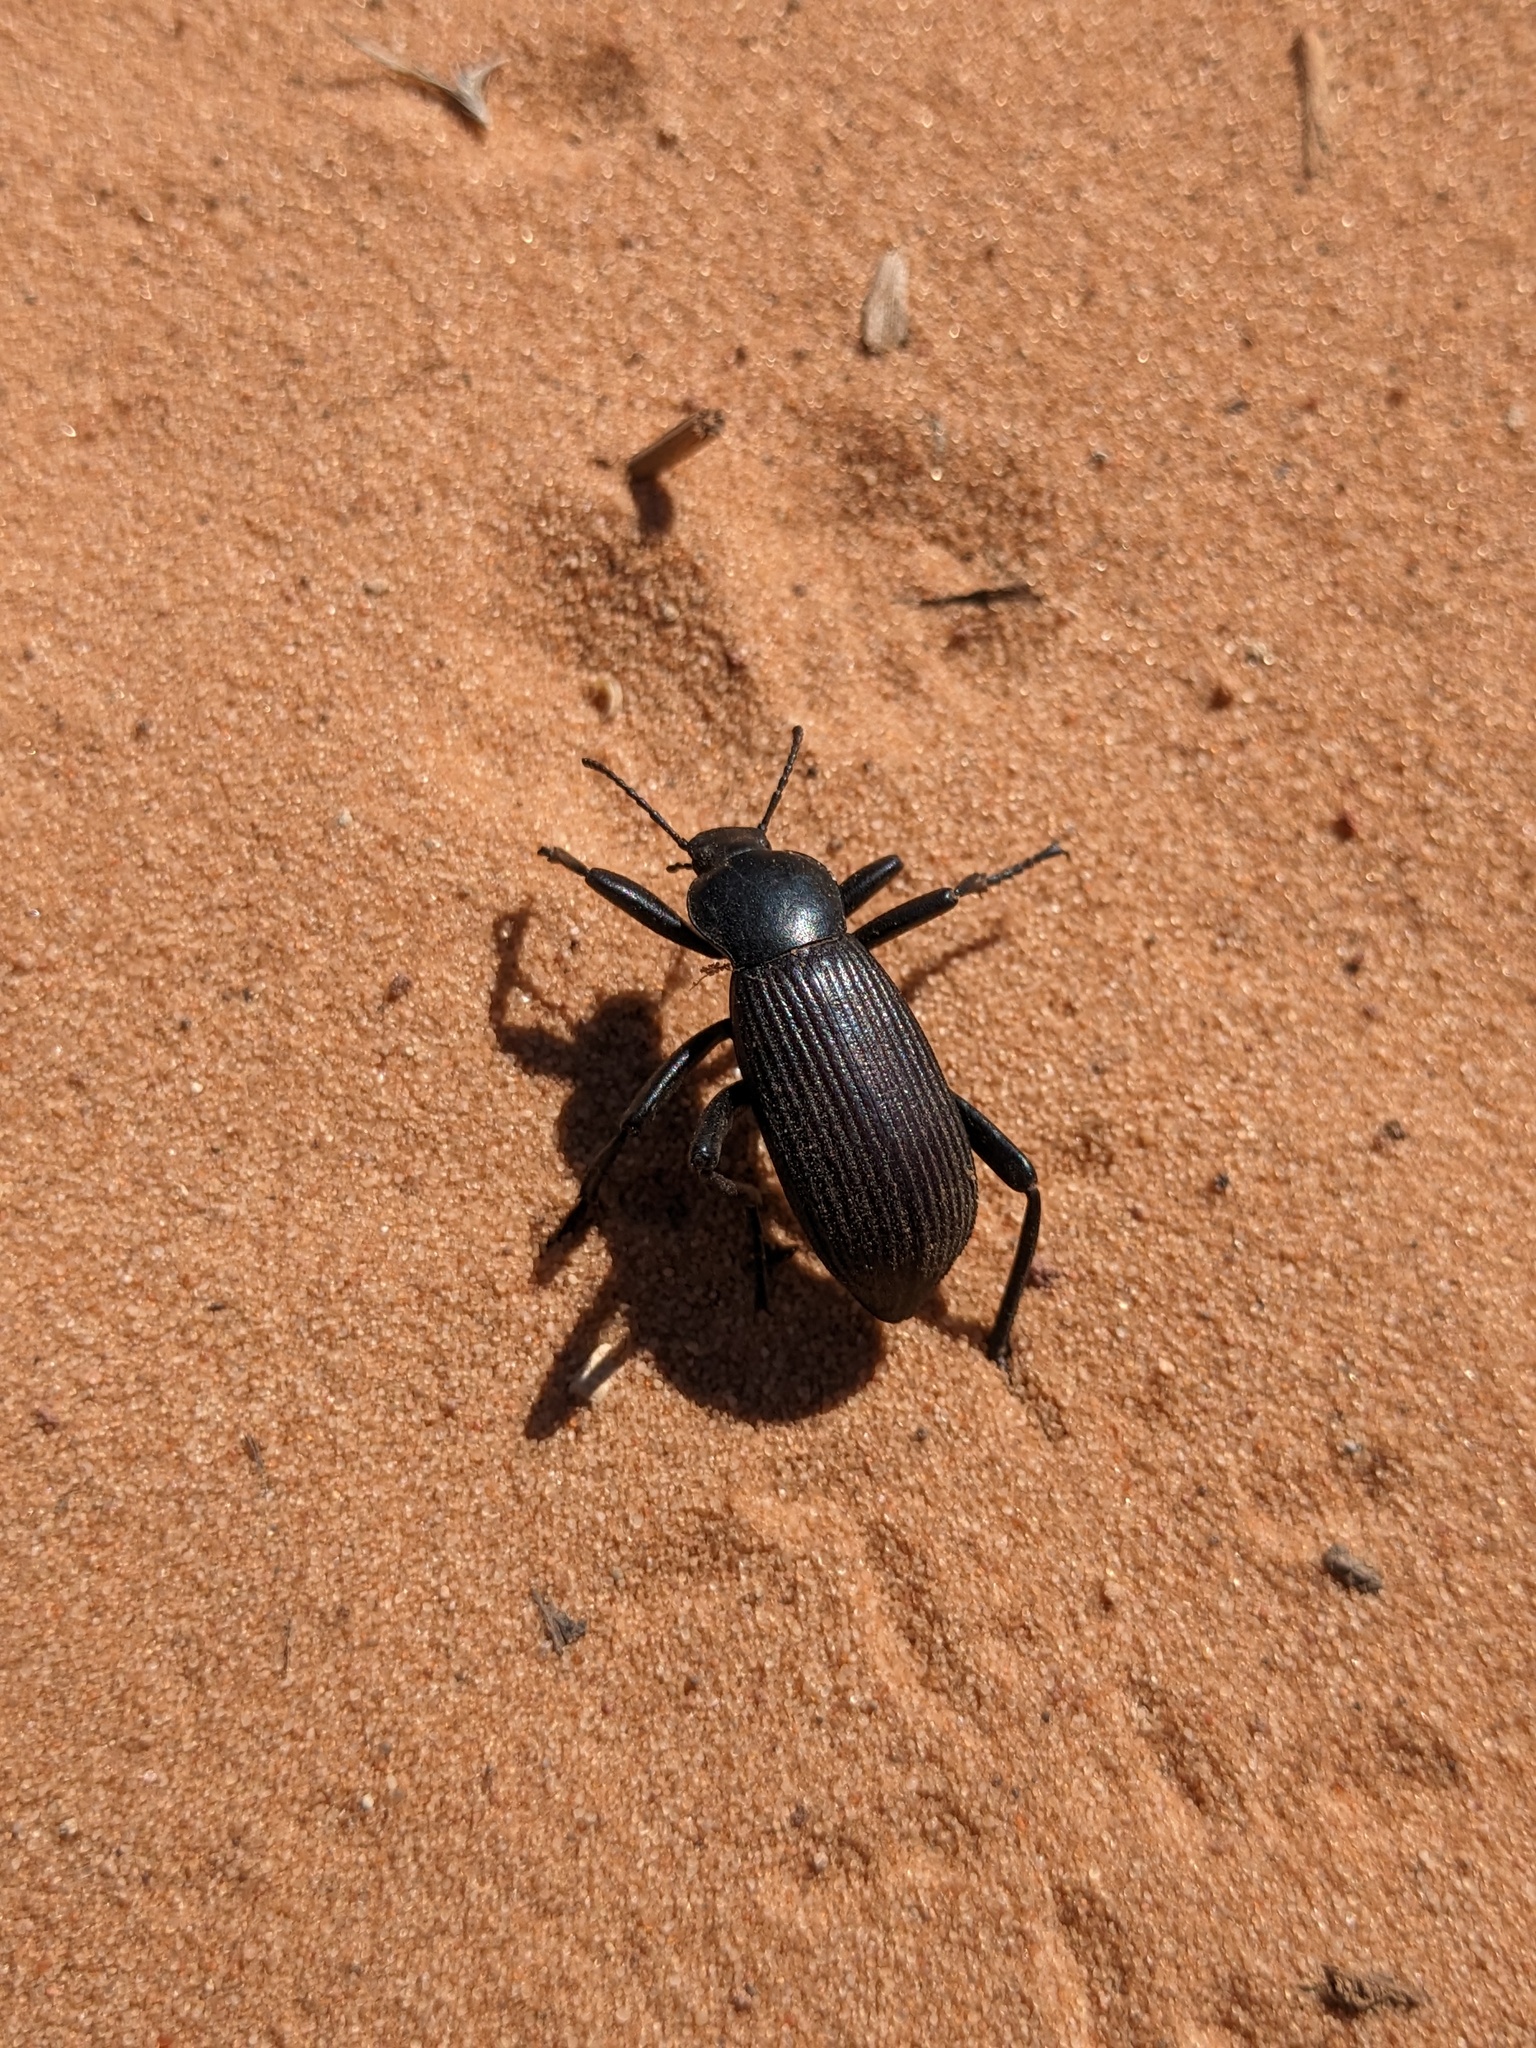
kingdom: Animalia
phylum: Arthropoda
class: Insecta
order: Coleoptera
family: Tenebrionidae
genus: Eleodes
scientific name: Eleodes obscura
